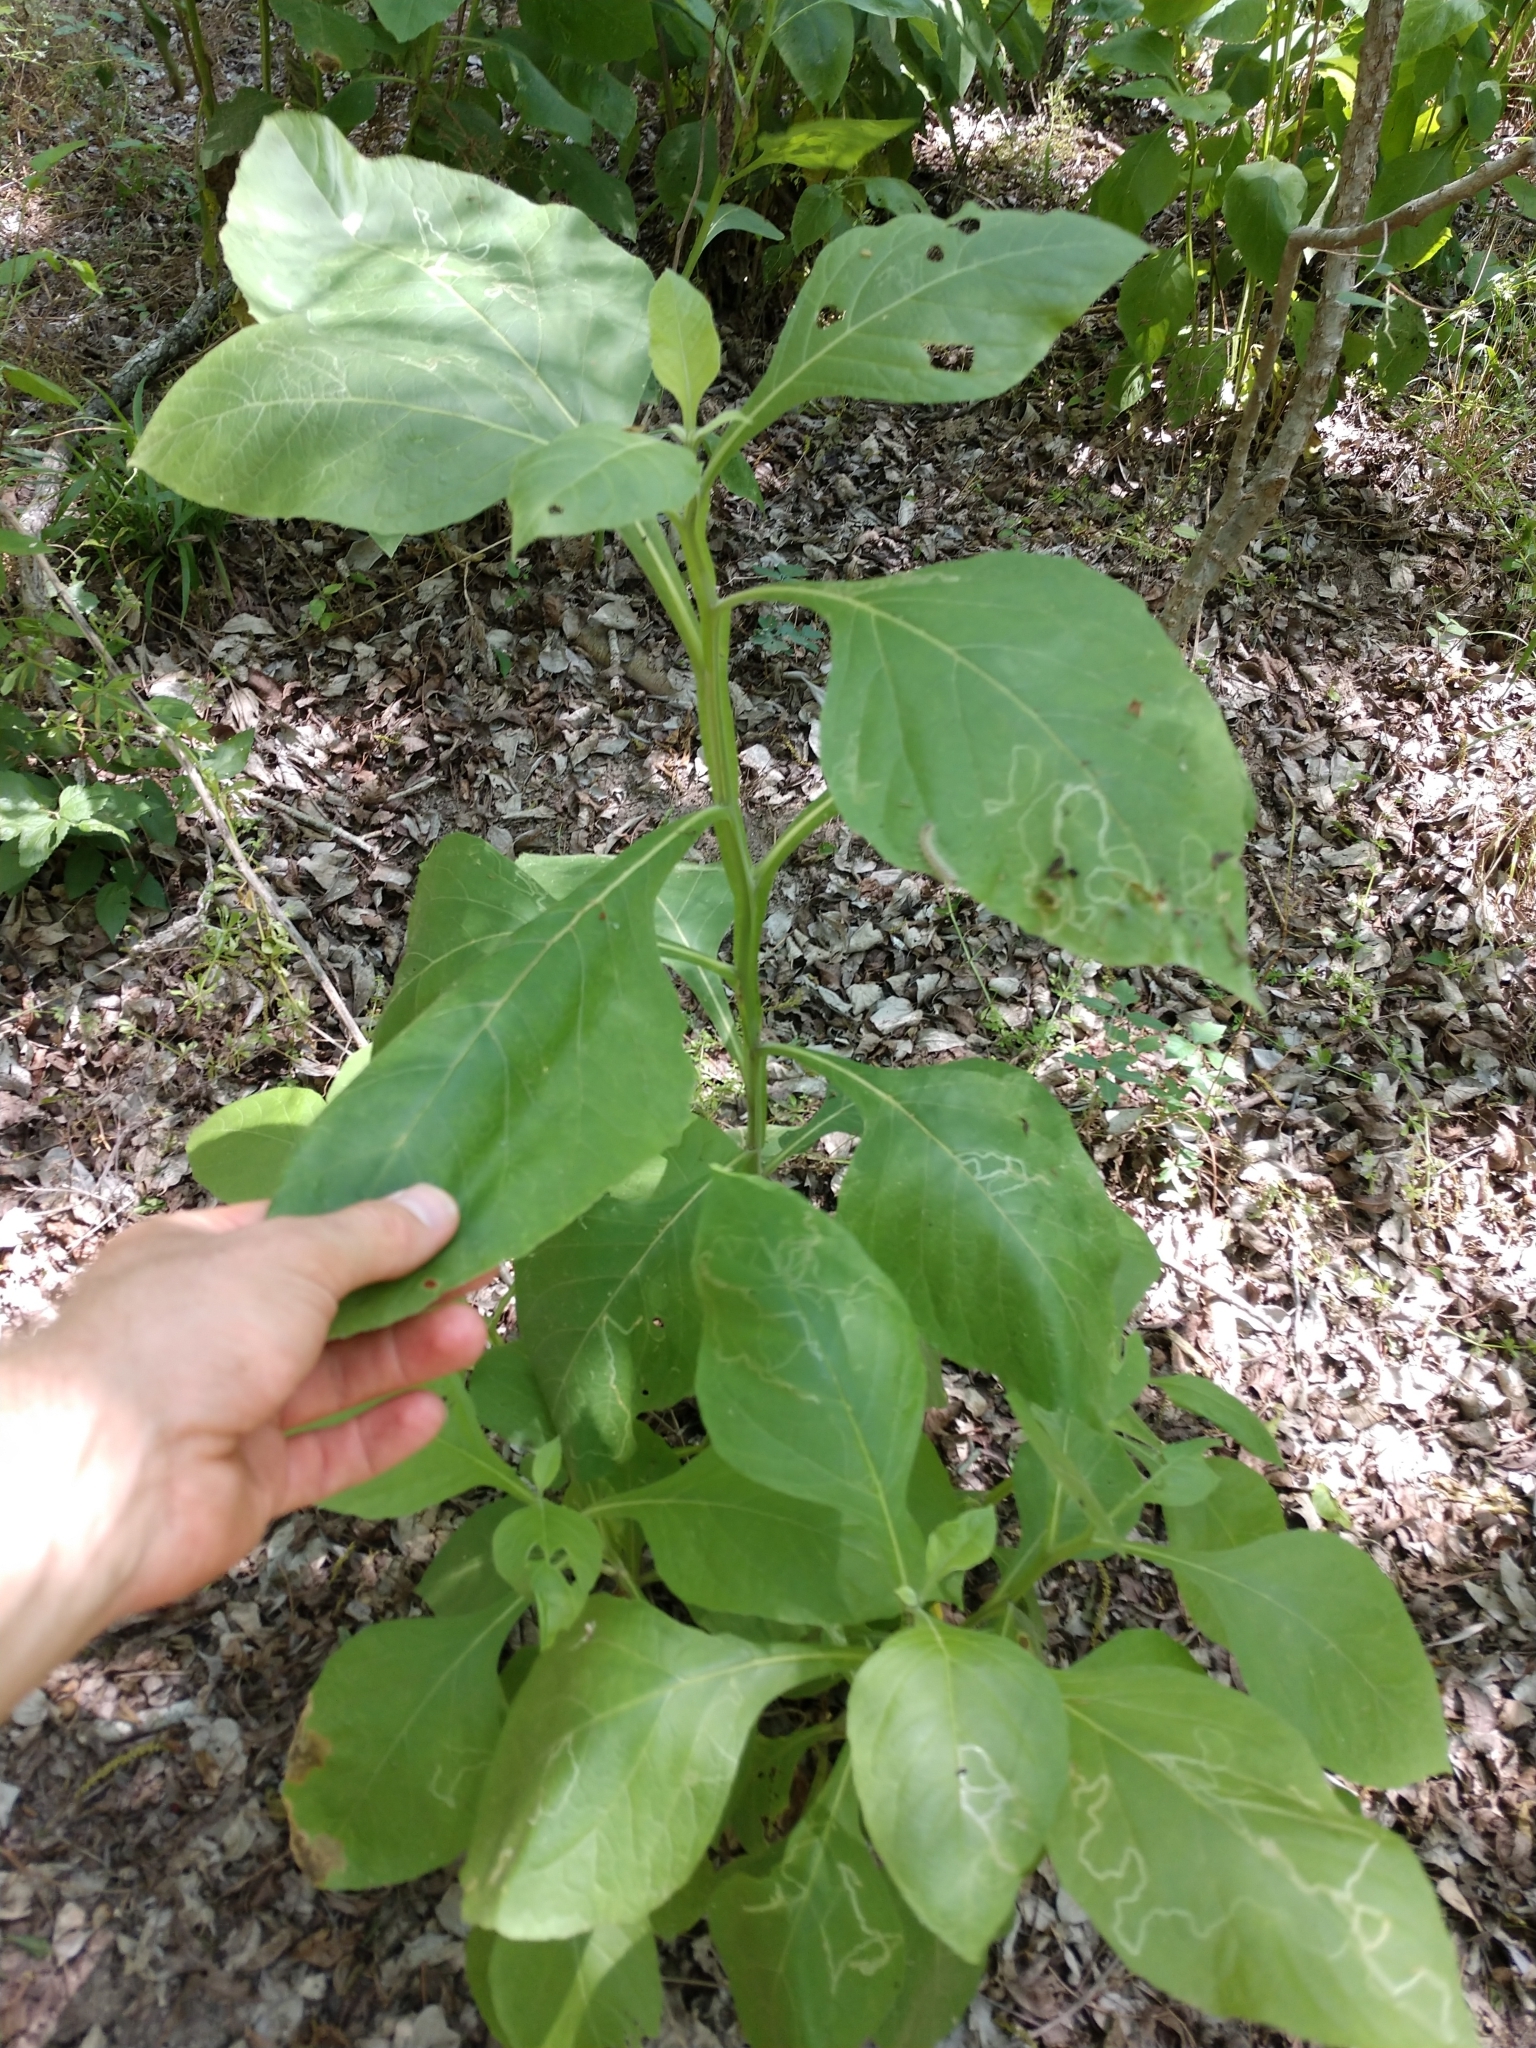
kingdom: Plantae
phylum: Tracheophyta
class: Magnoliopsida
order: Asterales
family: Asteraceae
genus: Verbesina
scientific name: Verbesina virginica
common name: Frostweed
